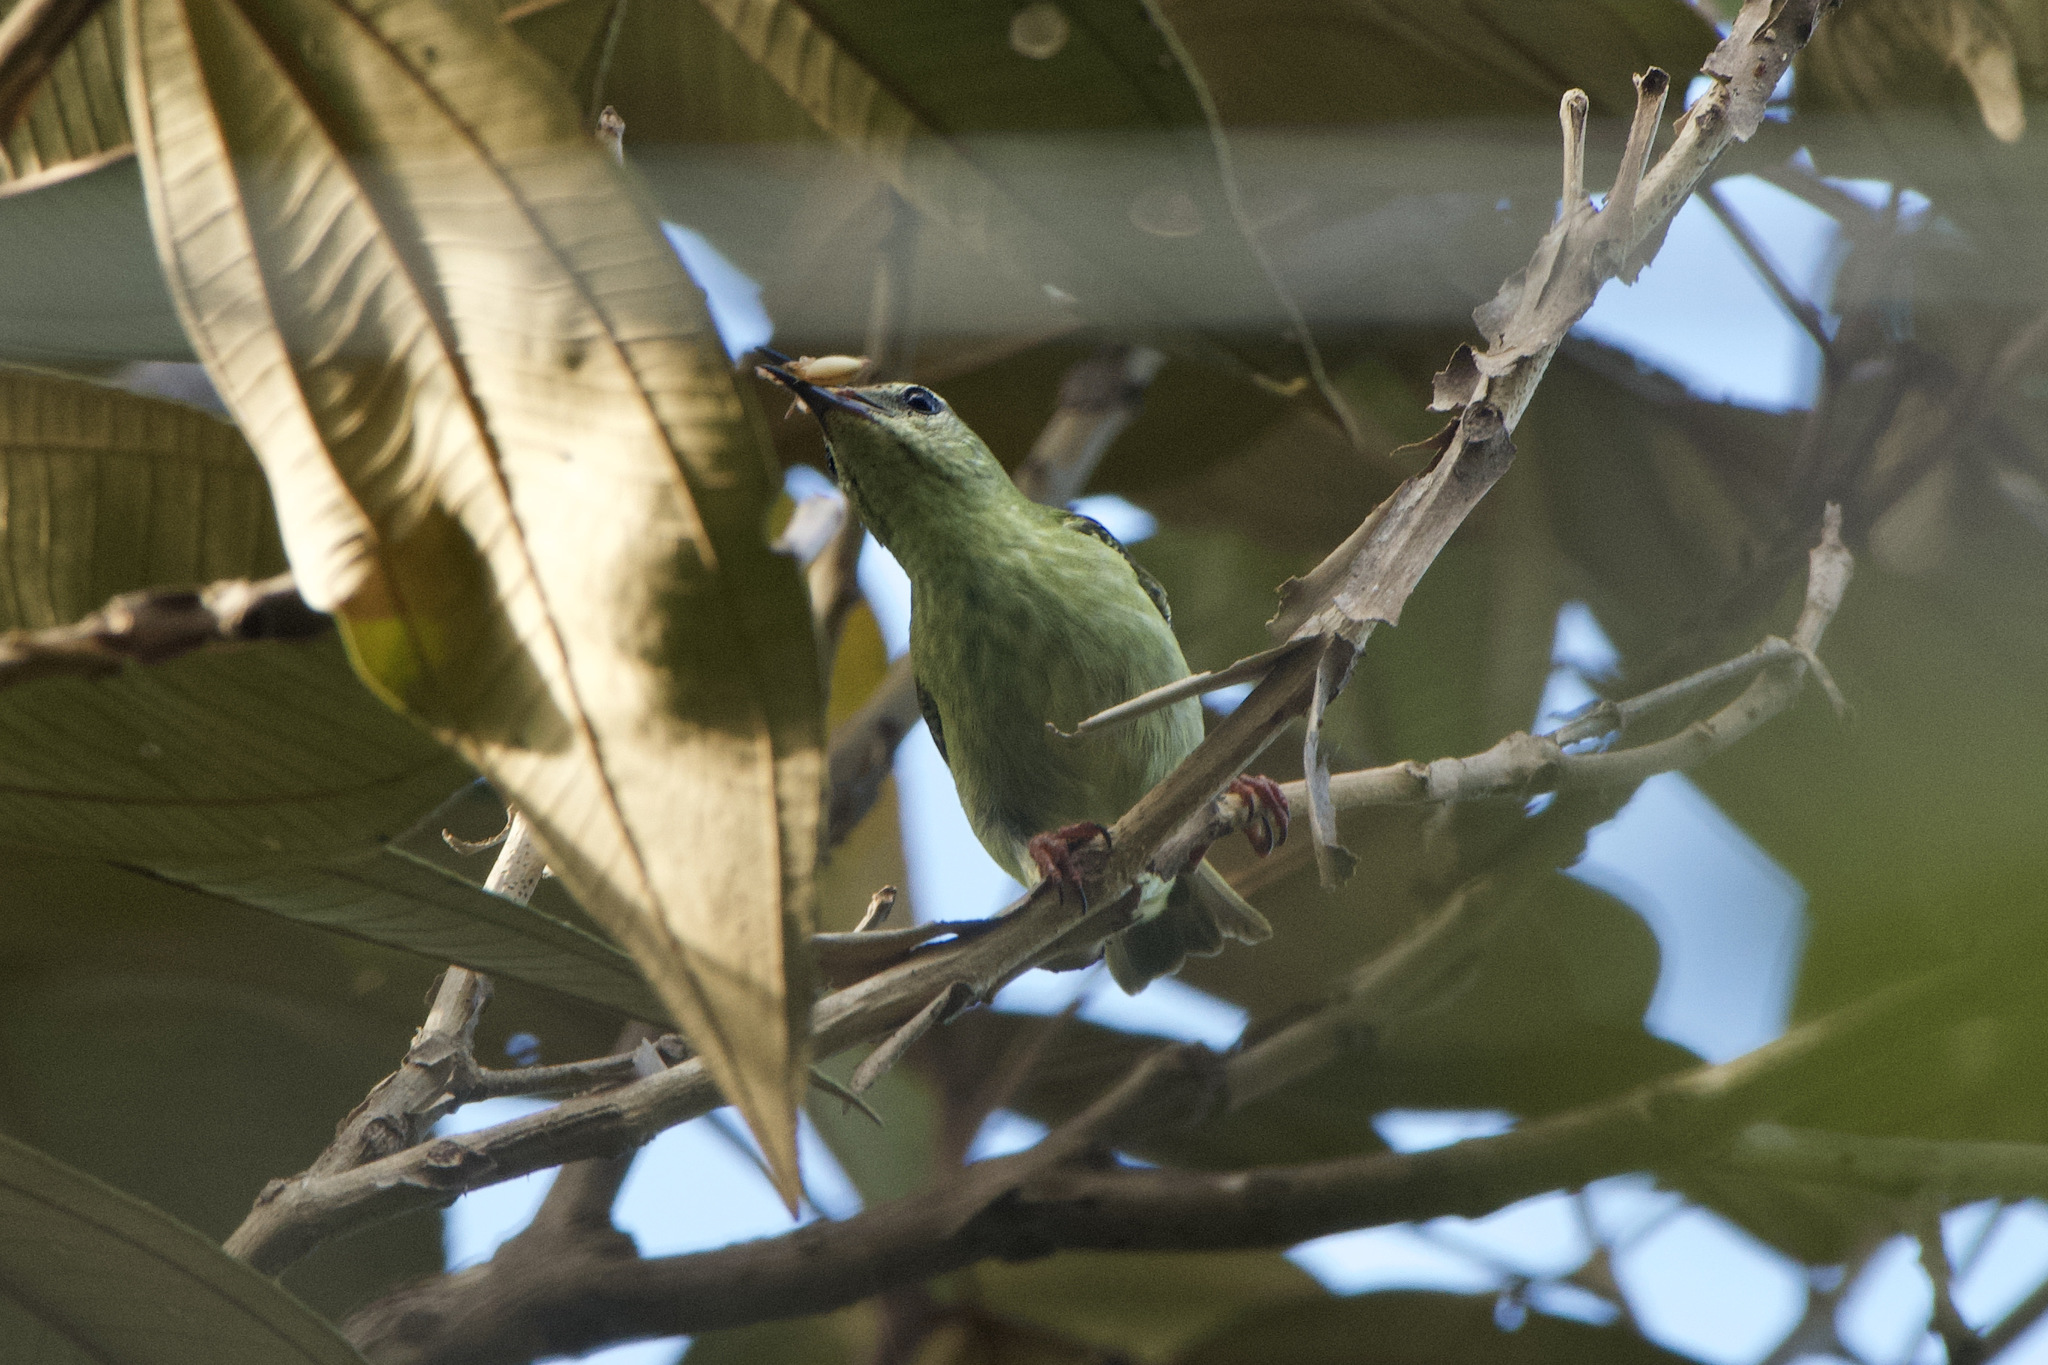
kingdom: Animalia
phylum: Chordata
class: Aves
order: Passeriformes
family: Thraupidae
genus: Cyanerpes
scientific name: Cyanerpes cyaneus
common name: Red-legged honeycreeper
